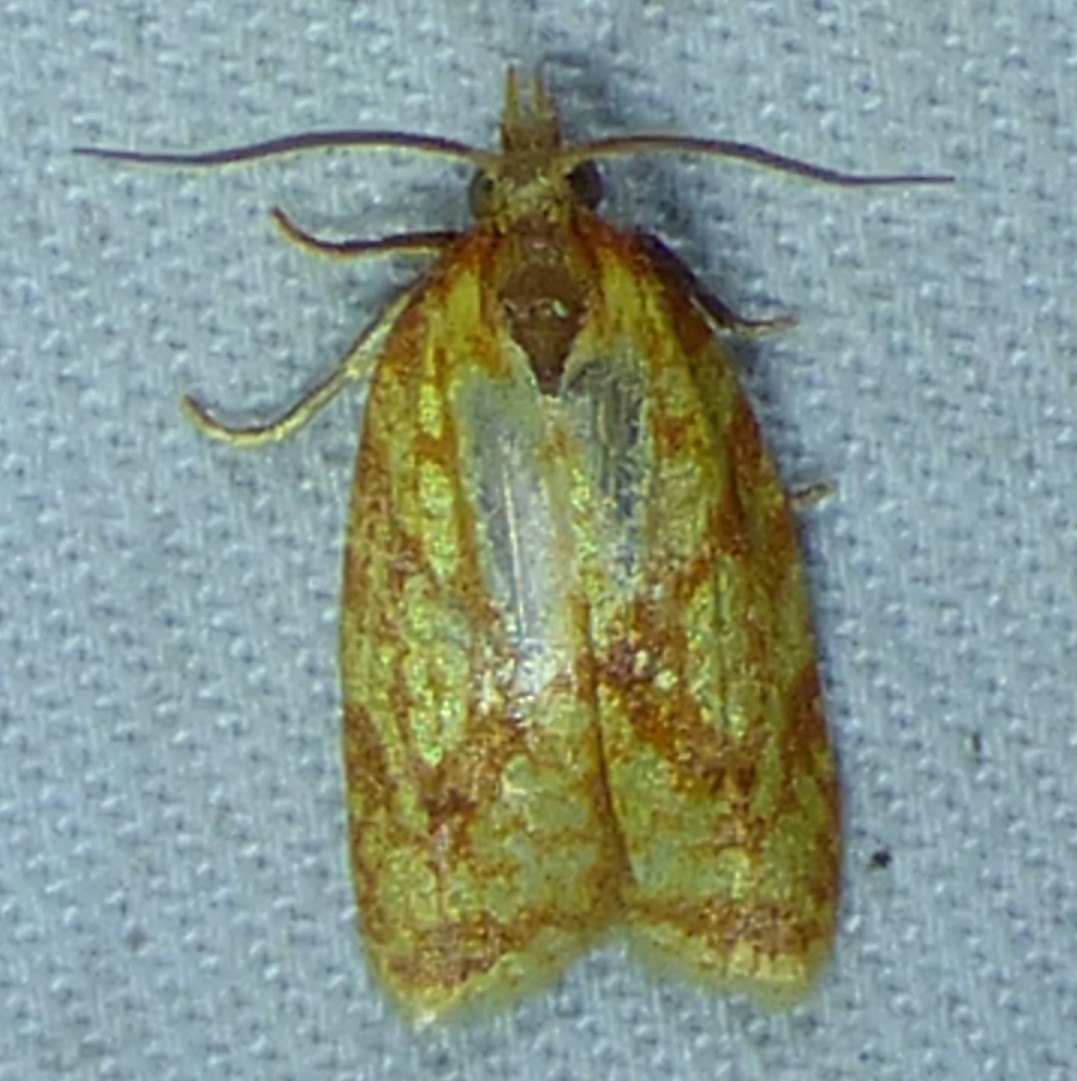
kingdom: Animalia
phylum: Arthropoda
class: Insecta
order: Lepidoptera
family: Tortricidae
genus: Sparganothis
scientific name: Sparganothis sulfureana
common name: Sparganothis fruitworm moth
